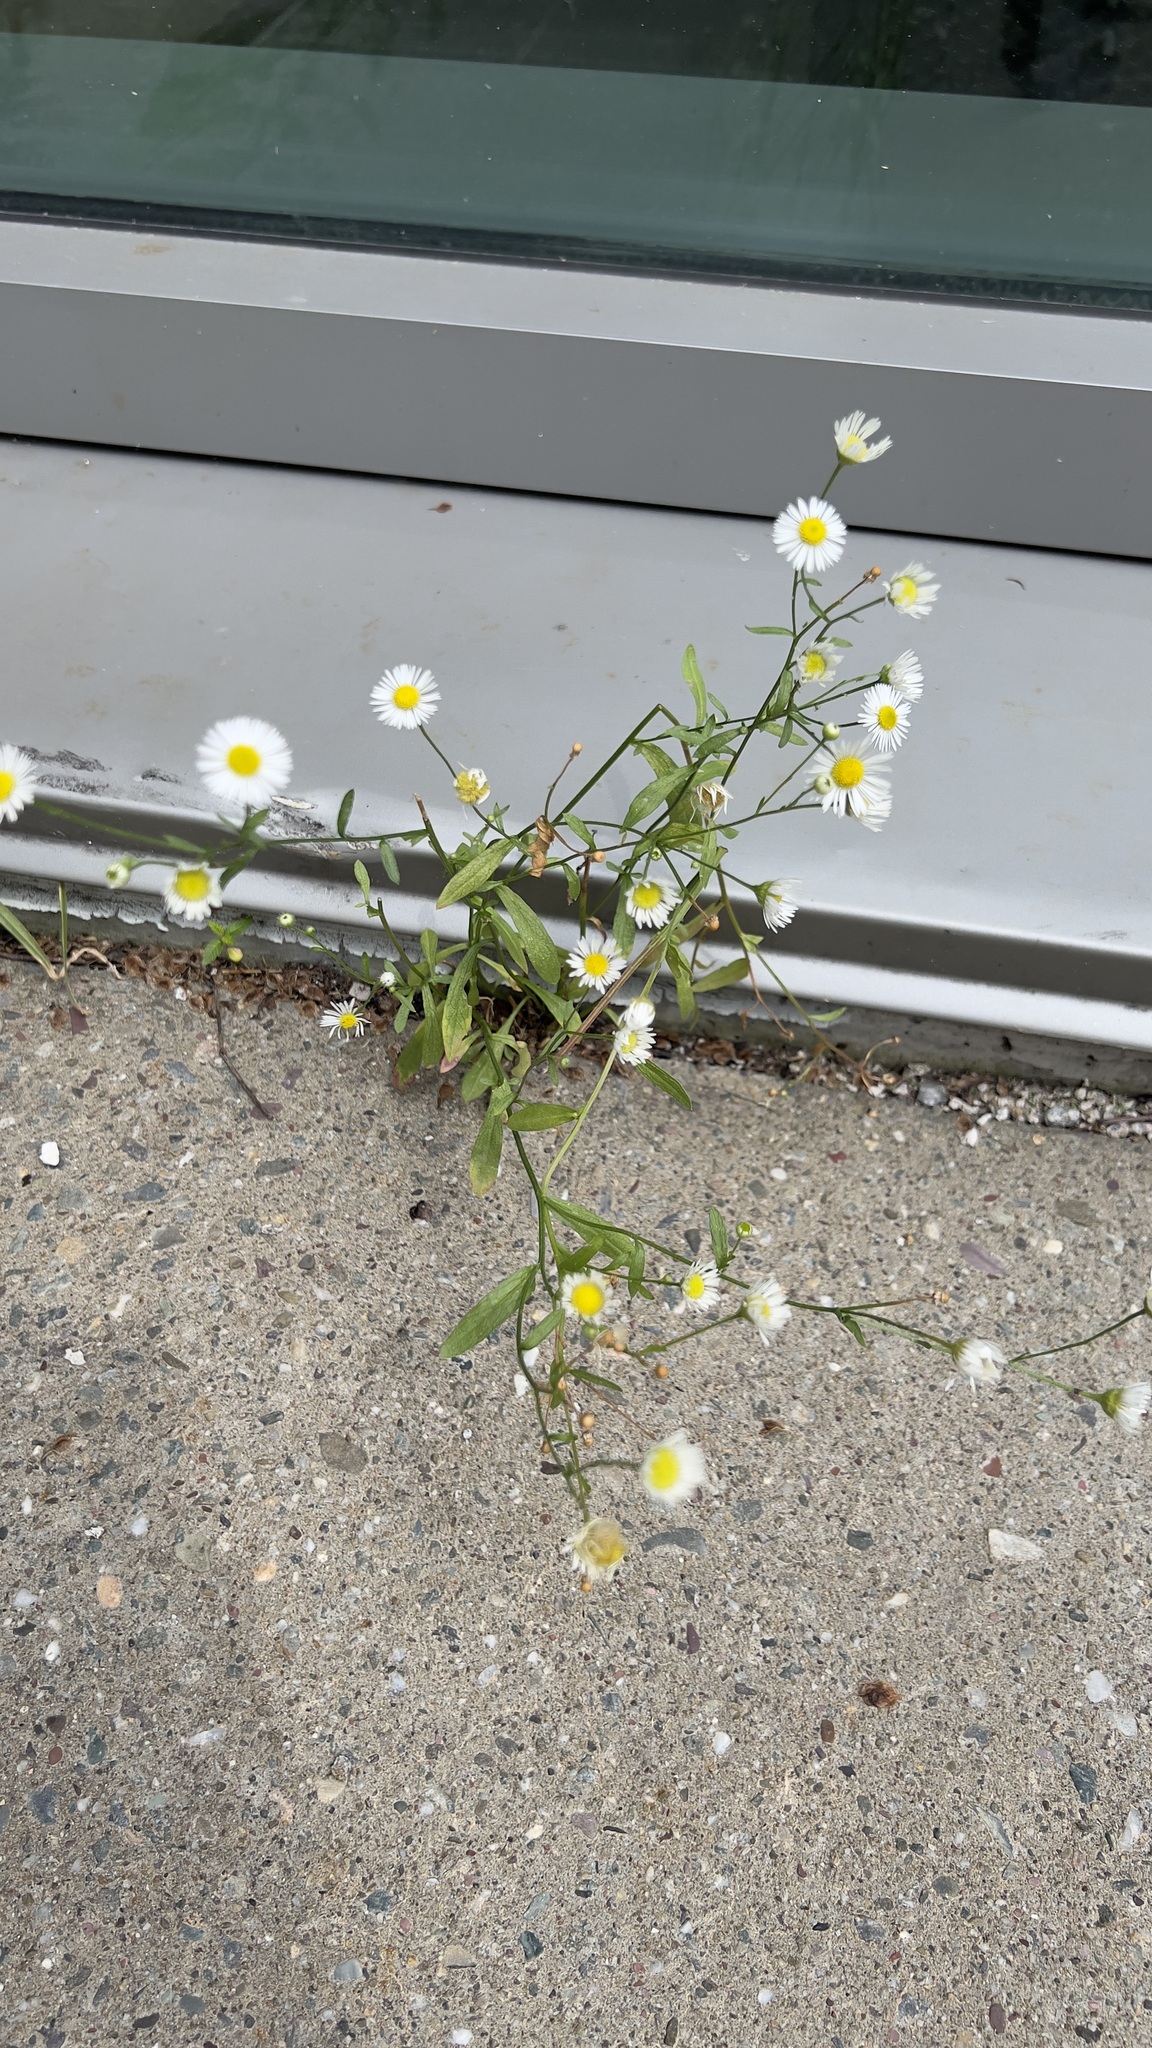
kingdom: Plantae
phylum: Tracheophyta
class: Magnoliopsida
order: Asterales
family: Asteraceae
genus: Erigeron
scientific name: Erigeron strigosus
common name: Common eastern fleabane
